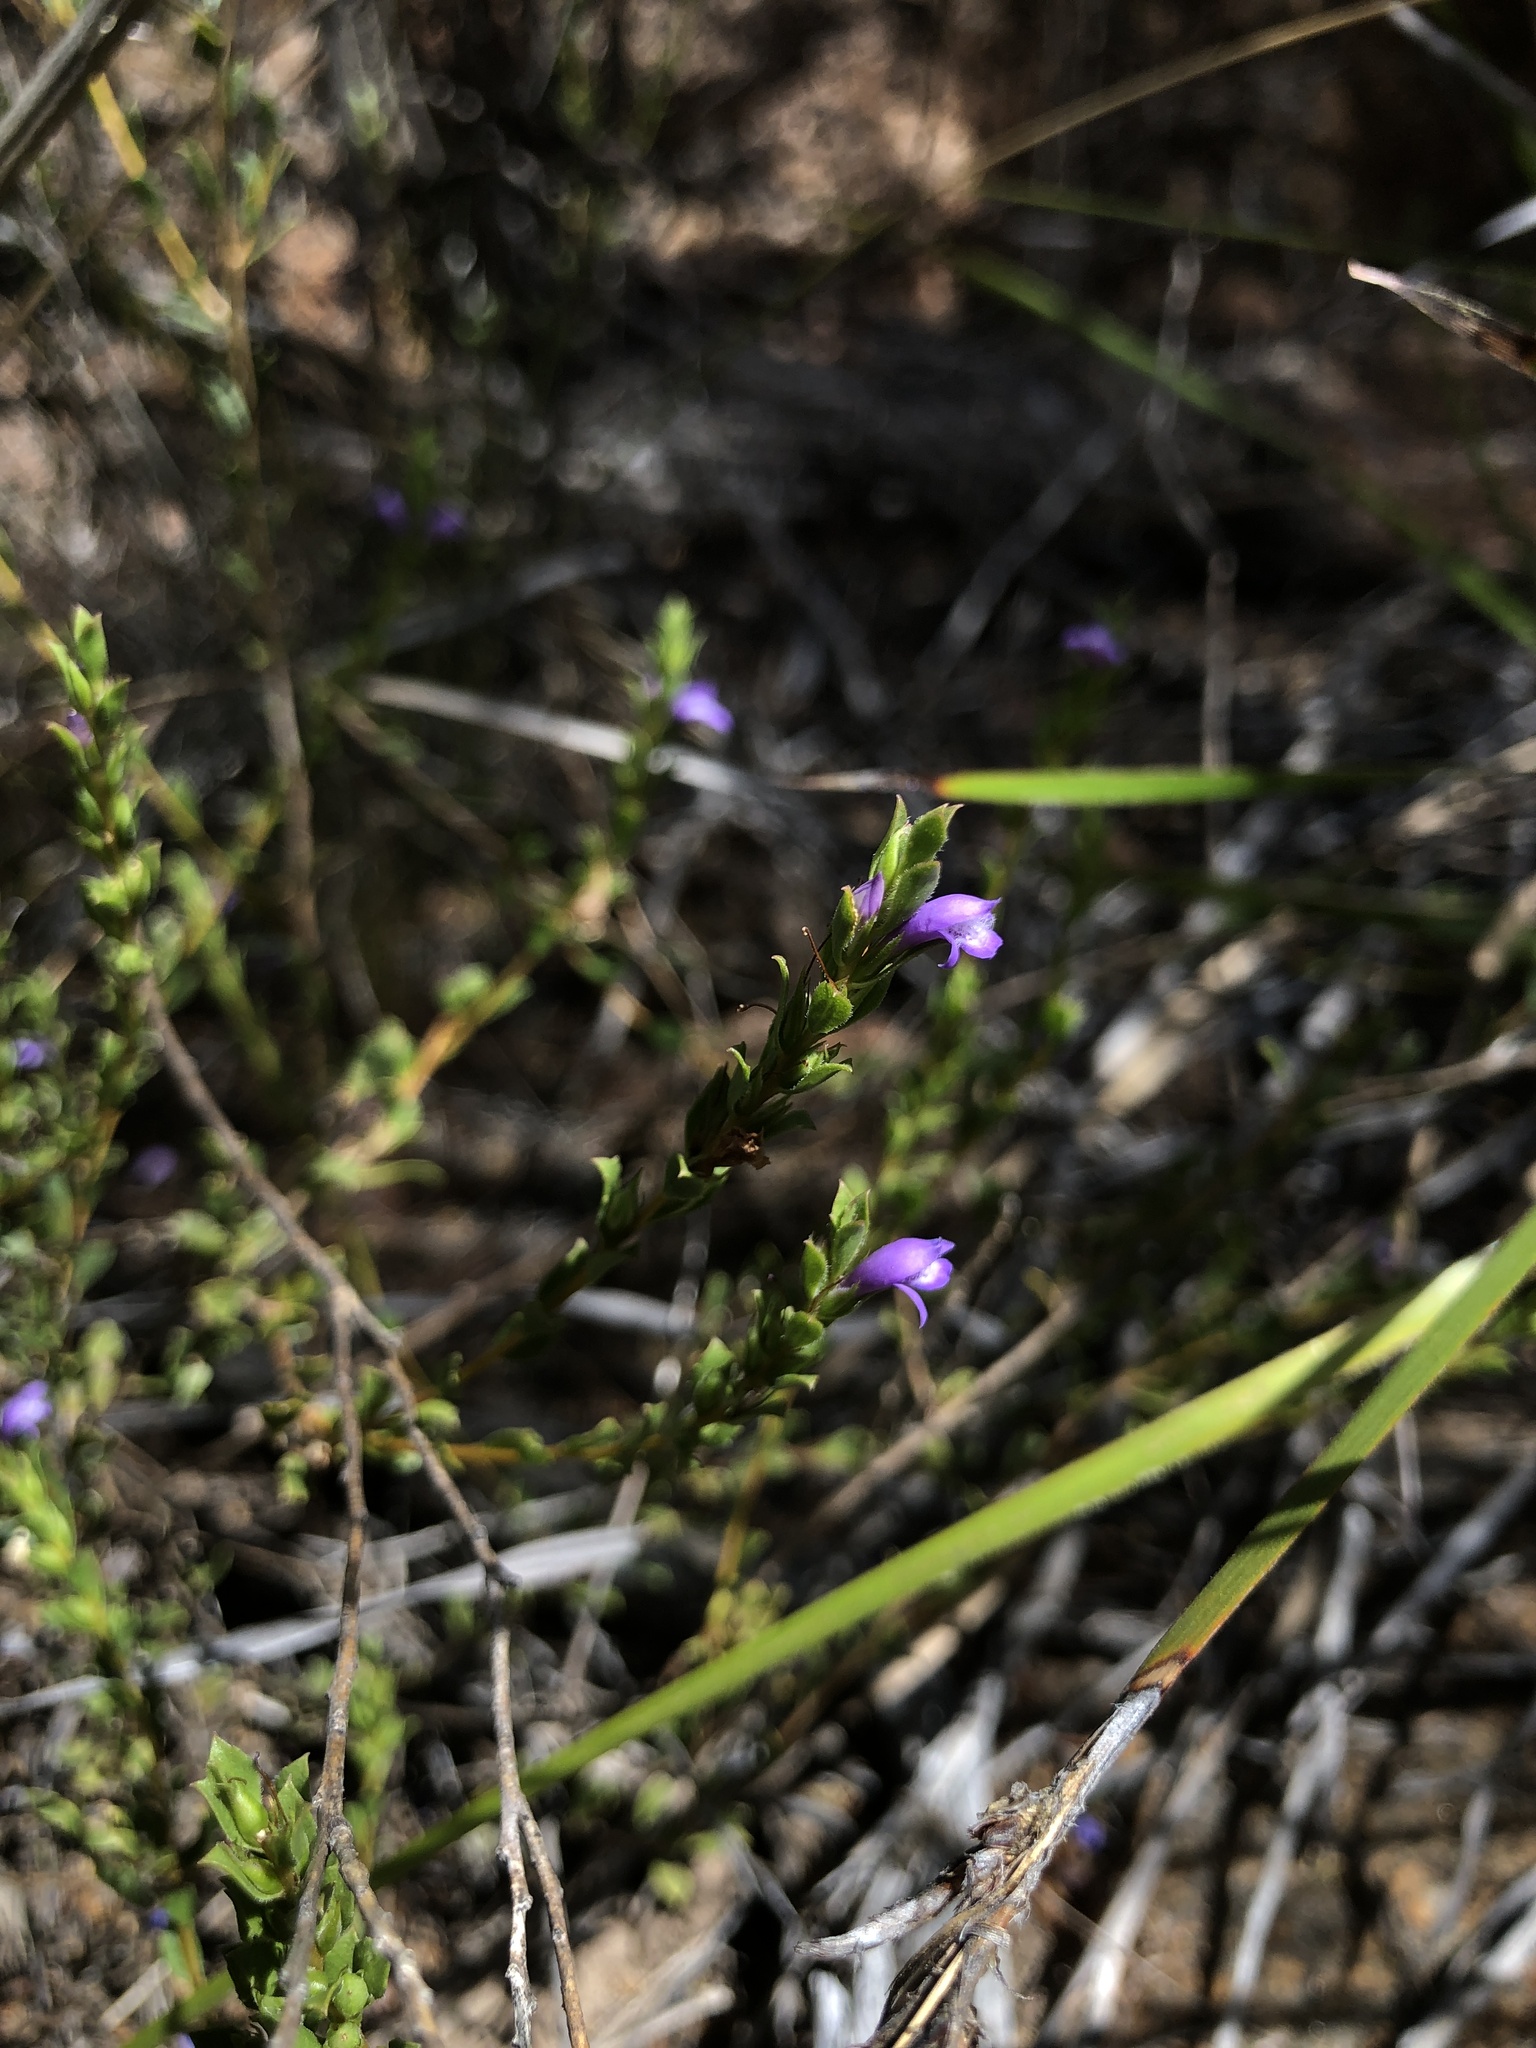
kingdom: Plantae
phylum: Tracheophyta
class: Magnoliopsida
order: Lamiales
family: Scrophulariaceae
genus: Eremophila
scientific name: Eremophila barbata
